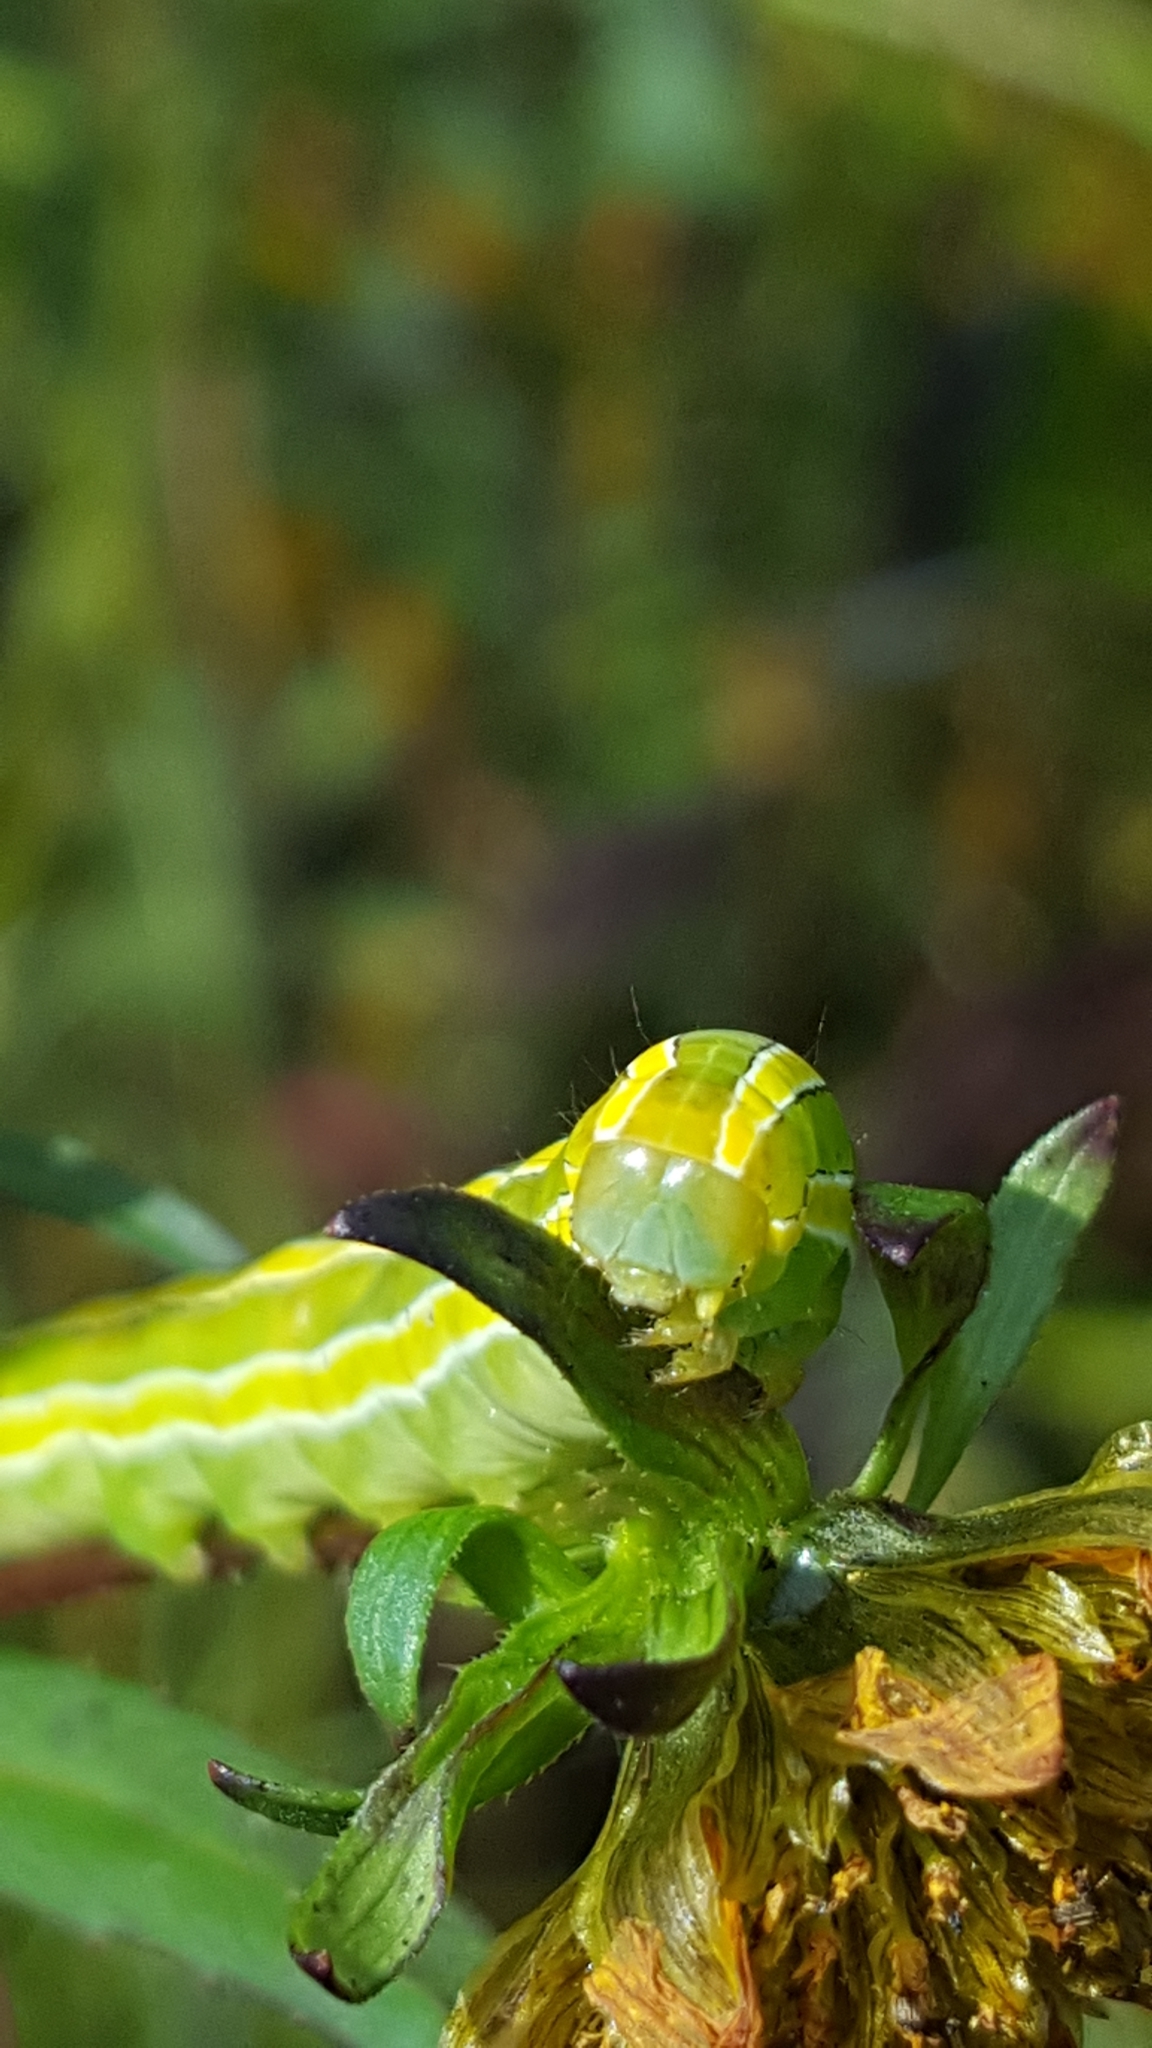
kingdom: Animalia
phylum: Arthropoda
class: Insecta
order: Lepidoptera
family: Noctuidae
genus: Melanchra
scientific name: Melanchra assimilis
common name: Black arches
